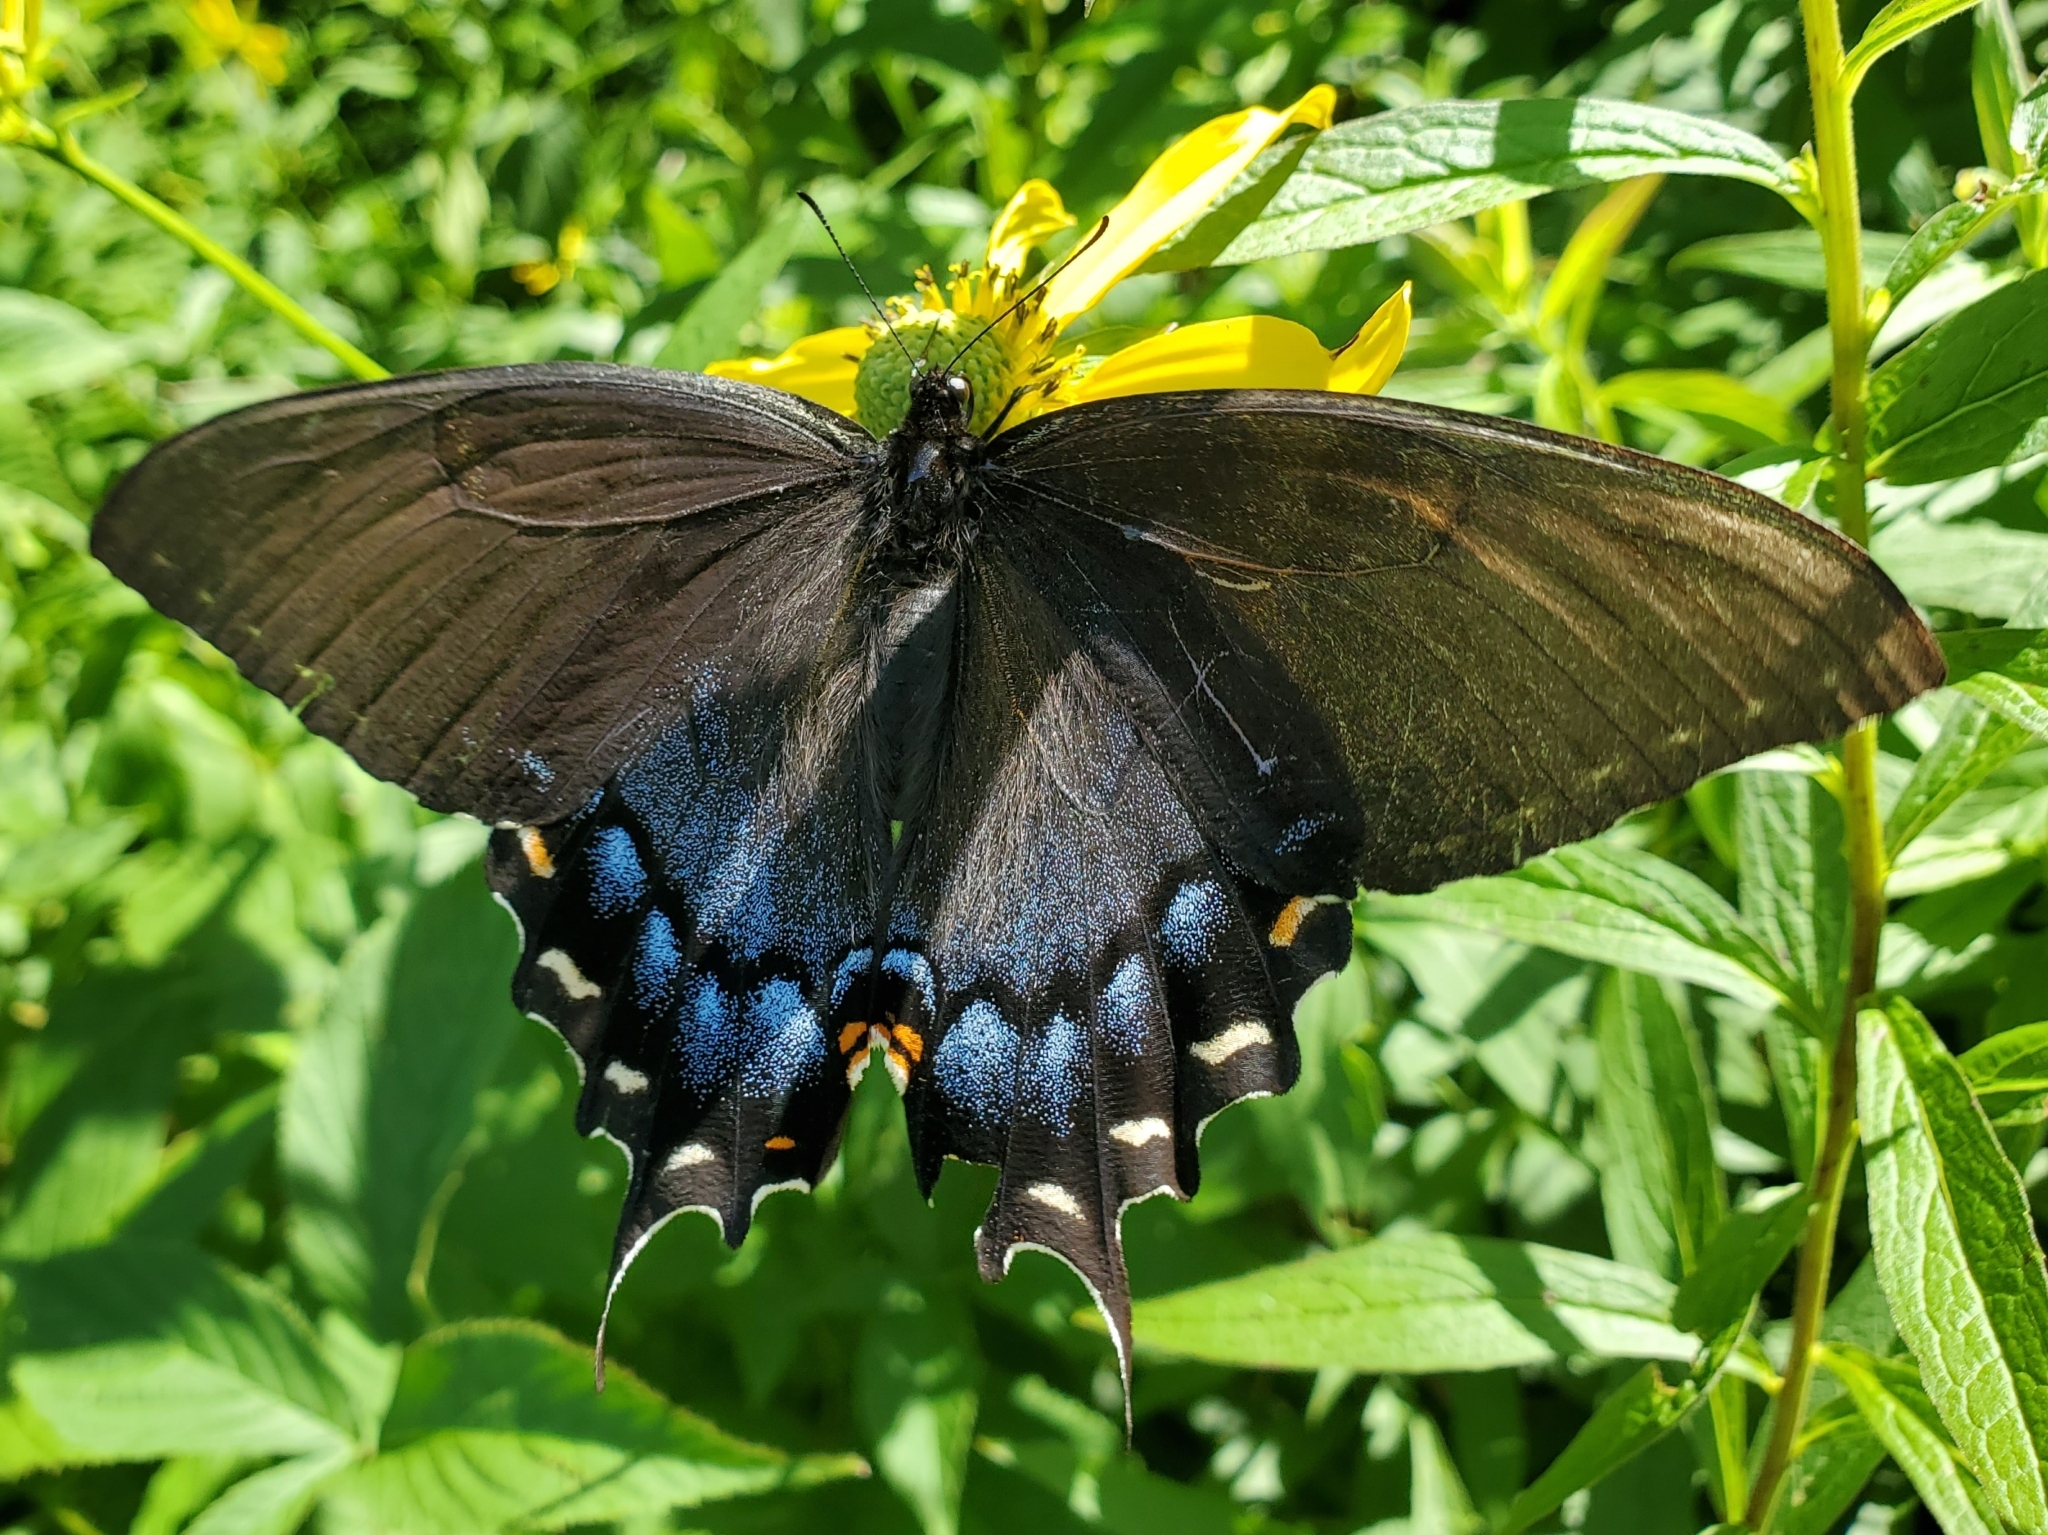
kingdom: Animalia
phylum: Arthropoda
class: Insecta
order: Lepidoptera
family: Papilionidae
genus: Papilio
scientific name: Papilio glaucus
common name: Tiger swallowtail
